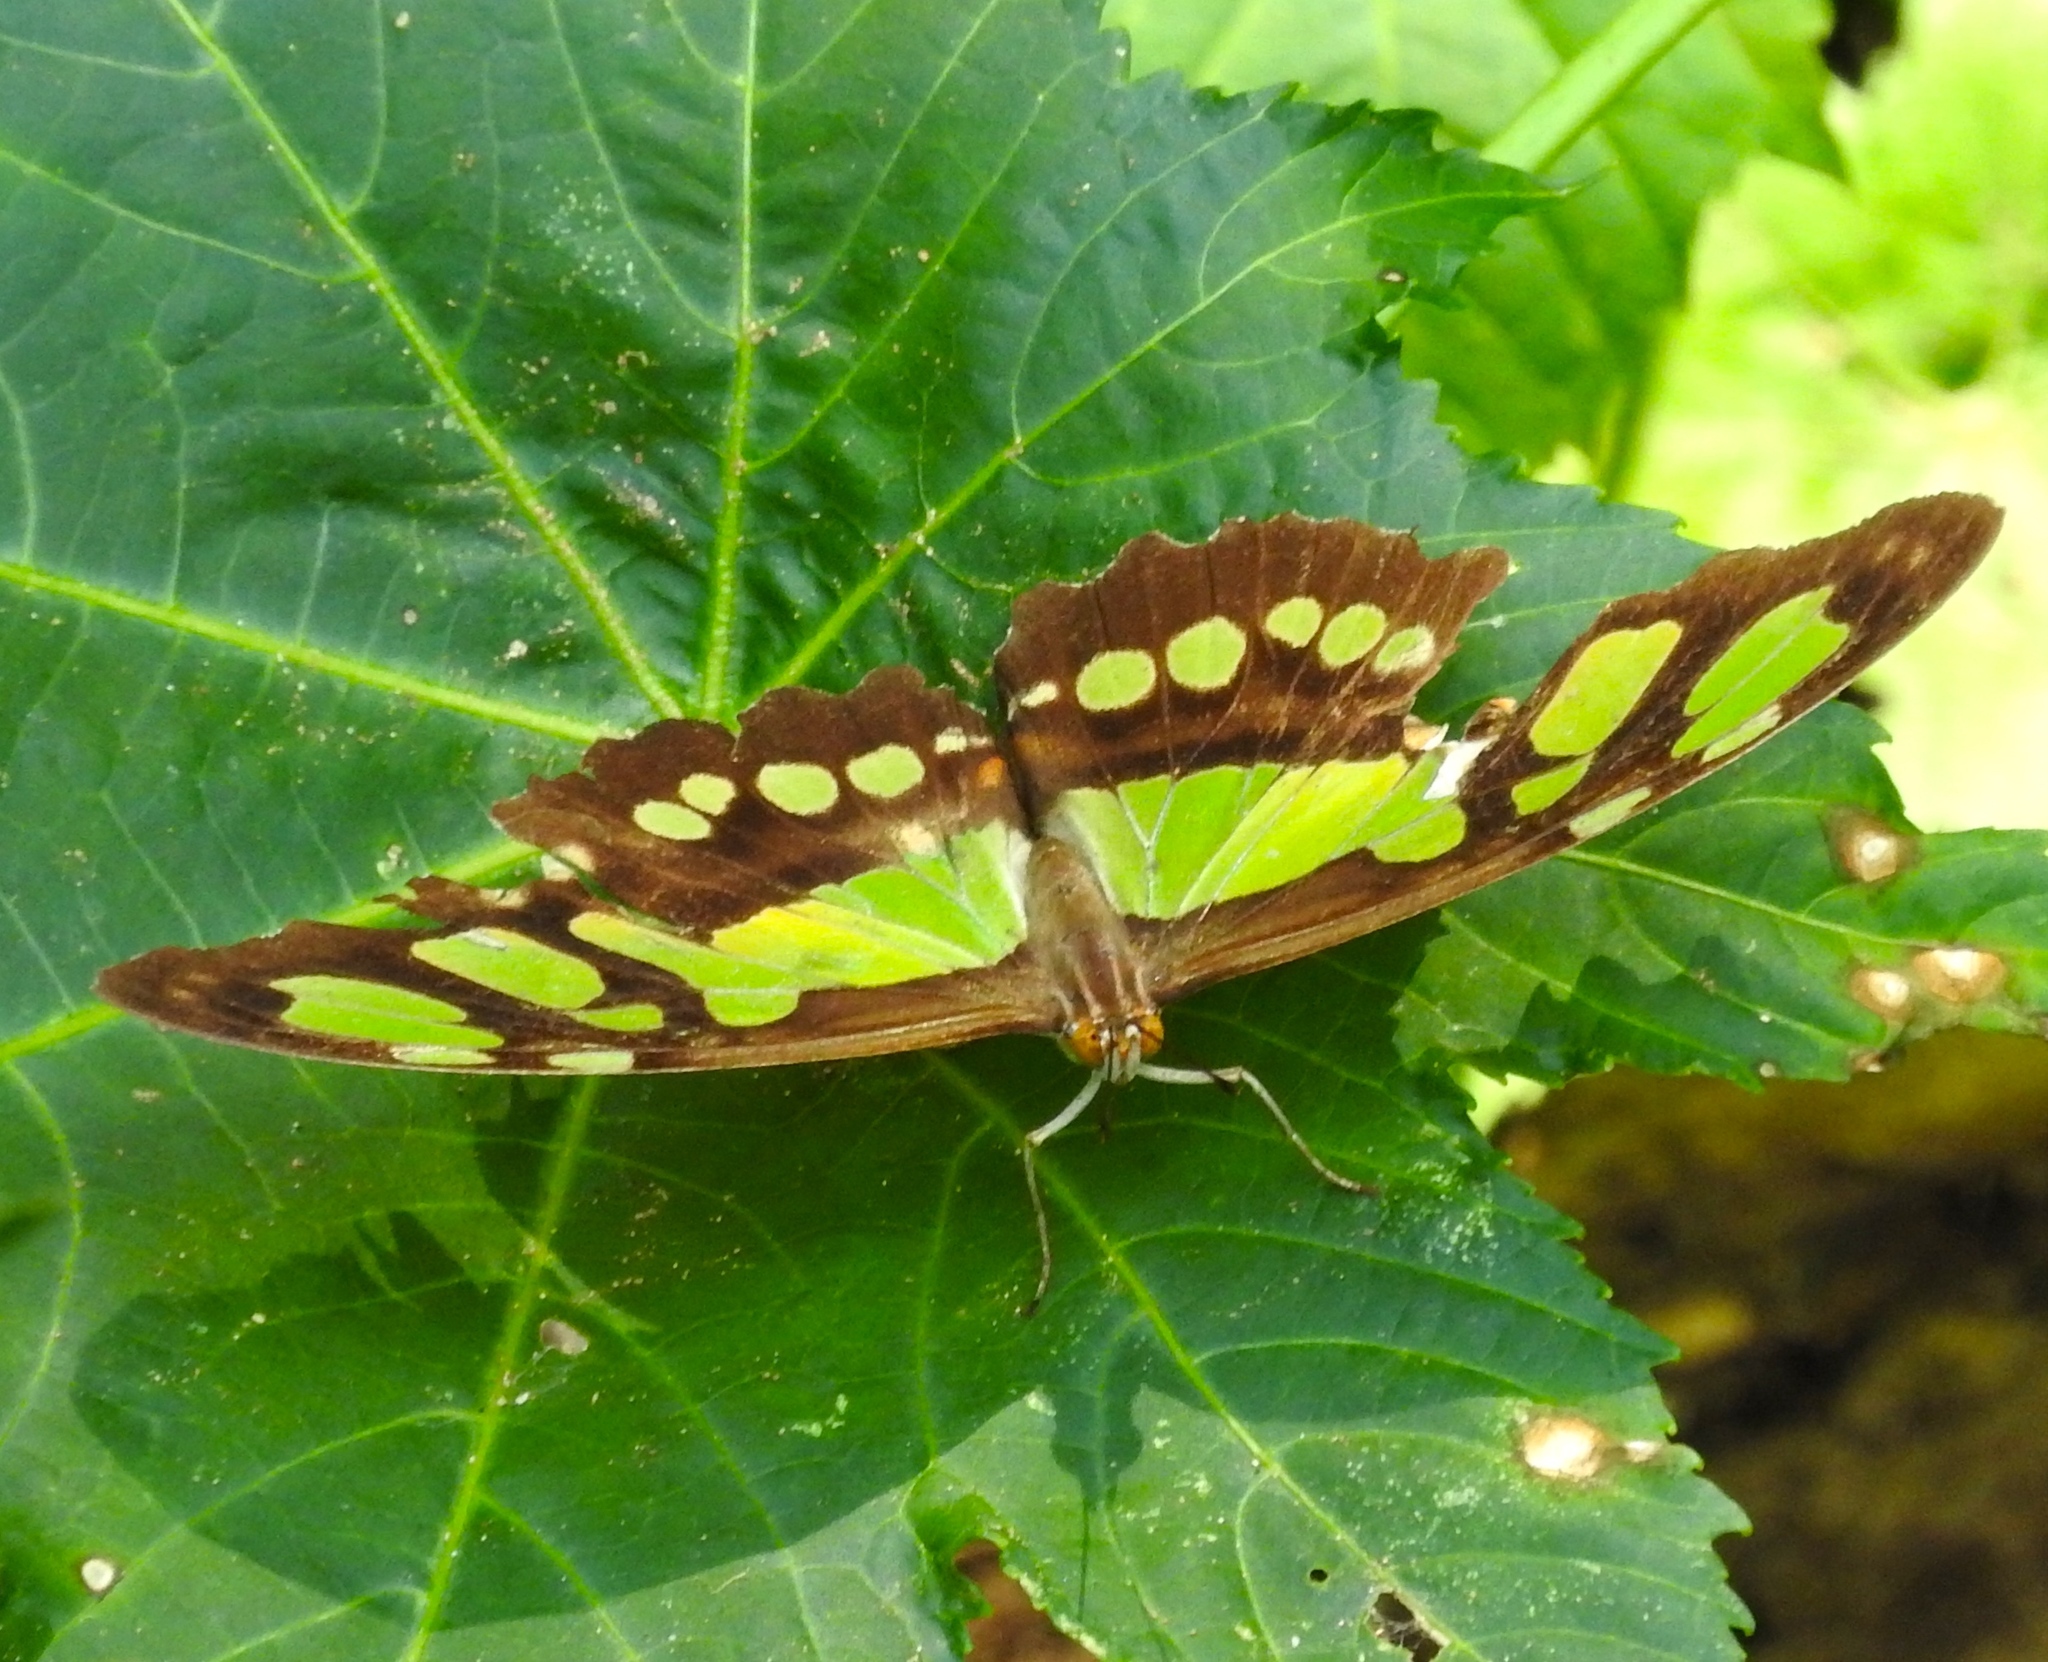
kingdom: Animalia
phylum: Arthropoda
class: Insecta
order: Lepidoptera
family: Nymphalidae
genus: Siproeta
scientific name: Siproeta stelenes
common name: Malachite
